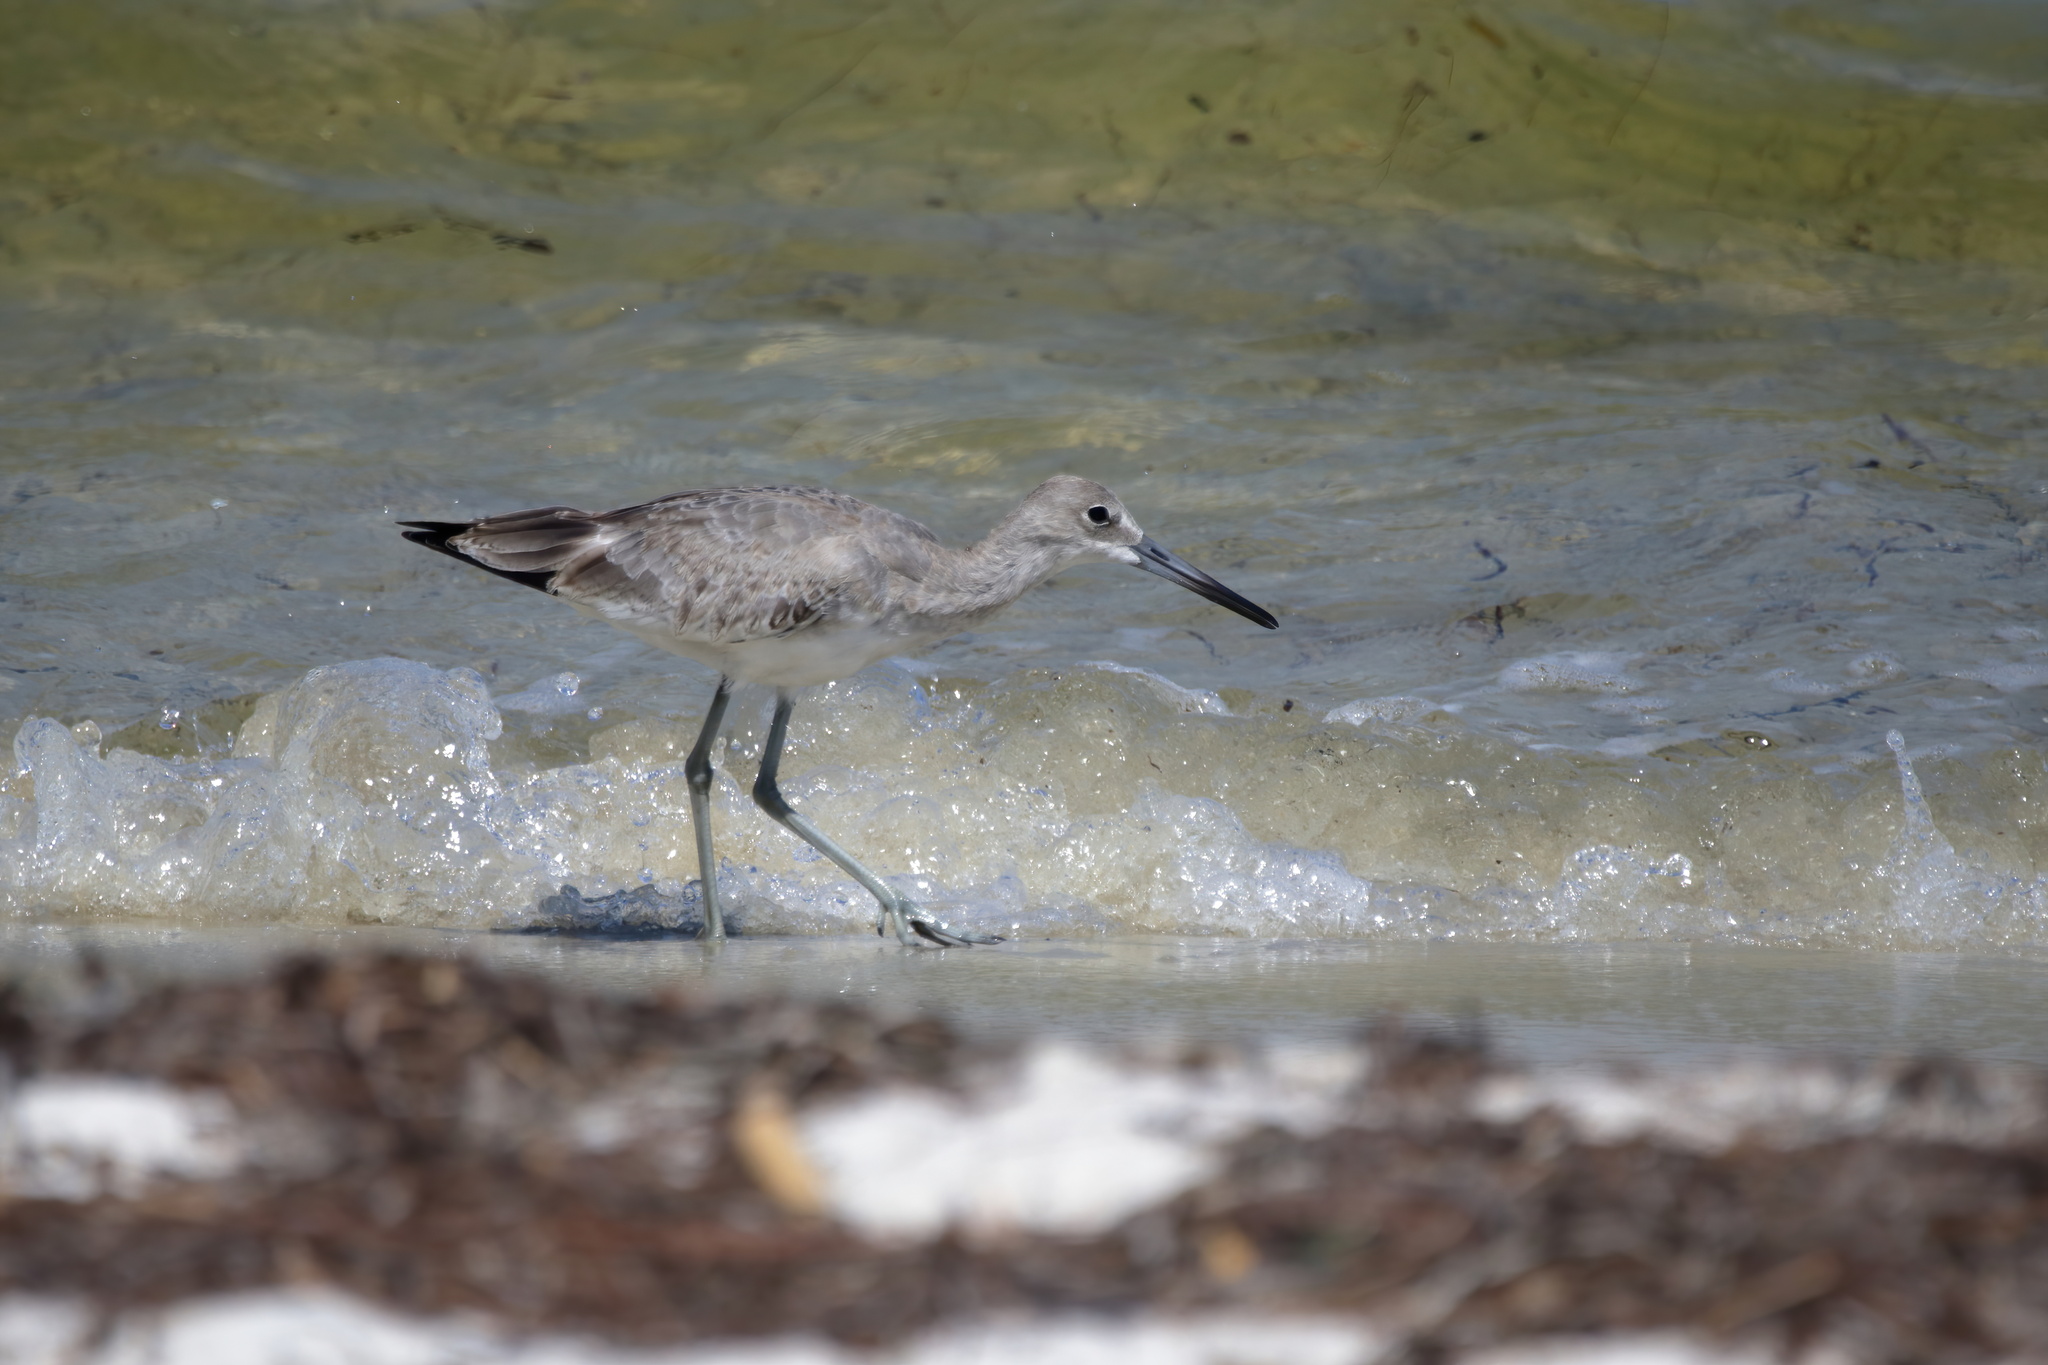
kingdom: Animalia
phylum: Chordata
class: Aves
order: Charadriiformes
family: Scolopacidae
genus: Tringa
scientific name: Tringa semipalmata
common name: Willet
